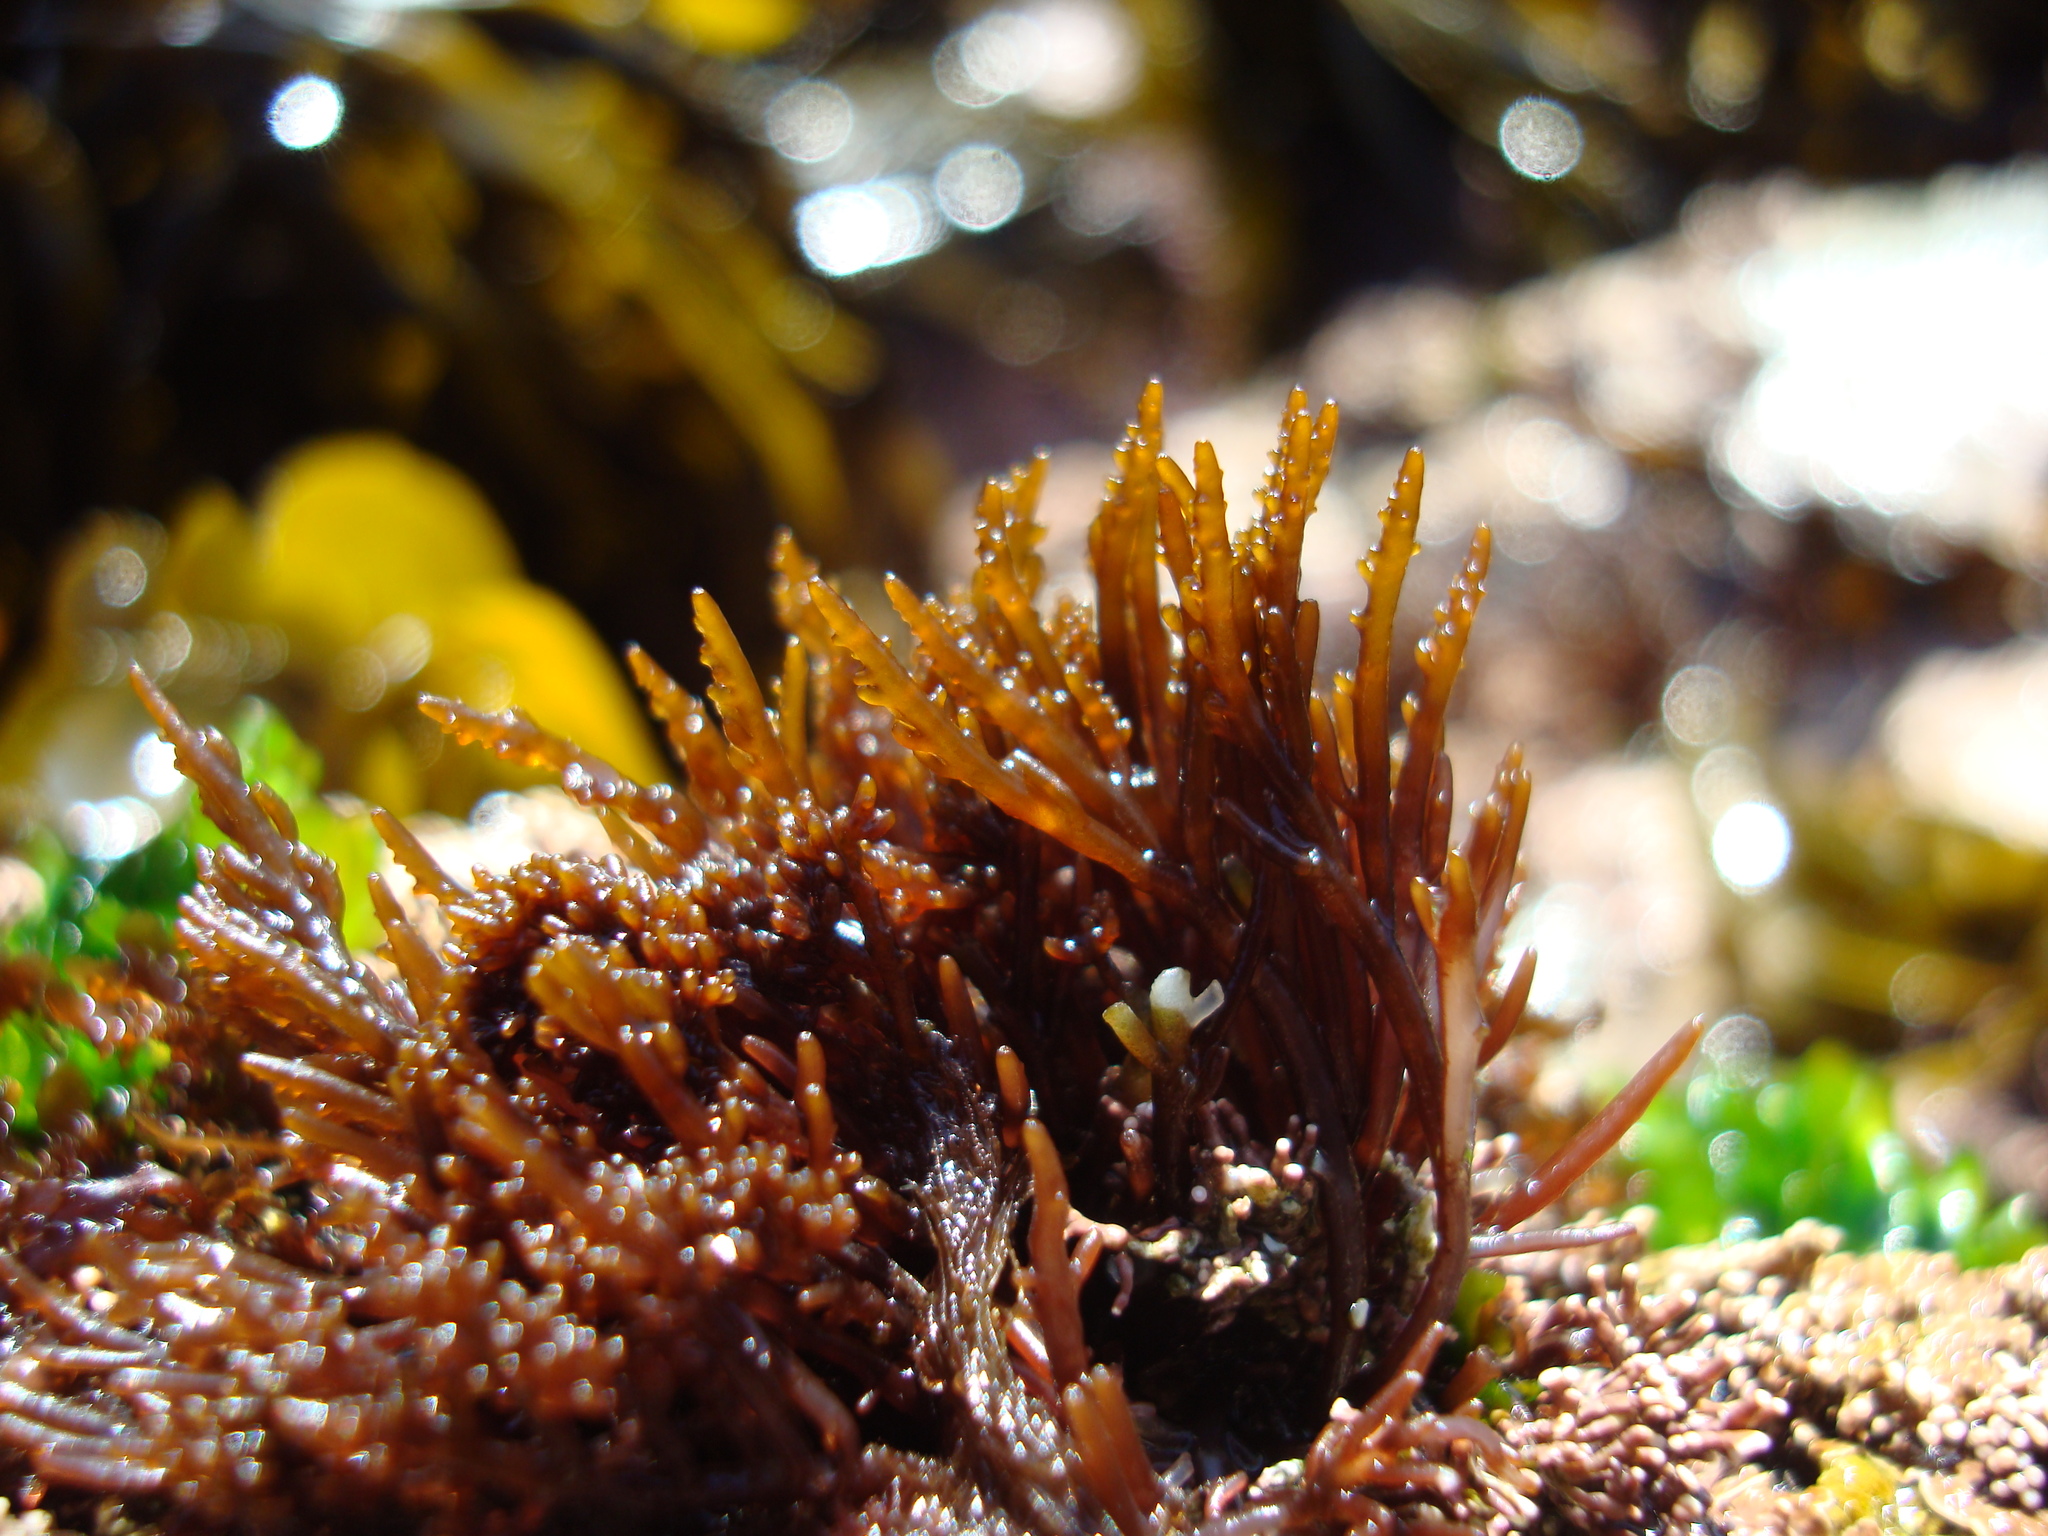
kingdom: Plantae
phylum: Rhodophyta
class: Florideophyceae
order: Ceramiales
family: Rhodomelaceae
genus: Chondria
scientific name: Chondria
